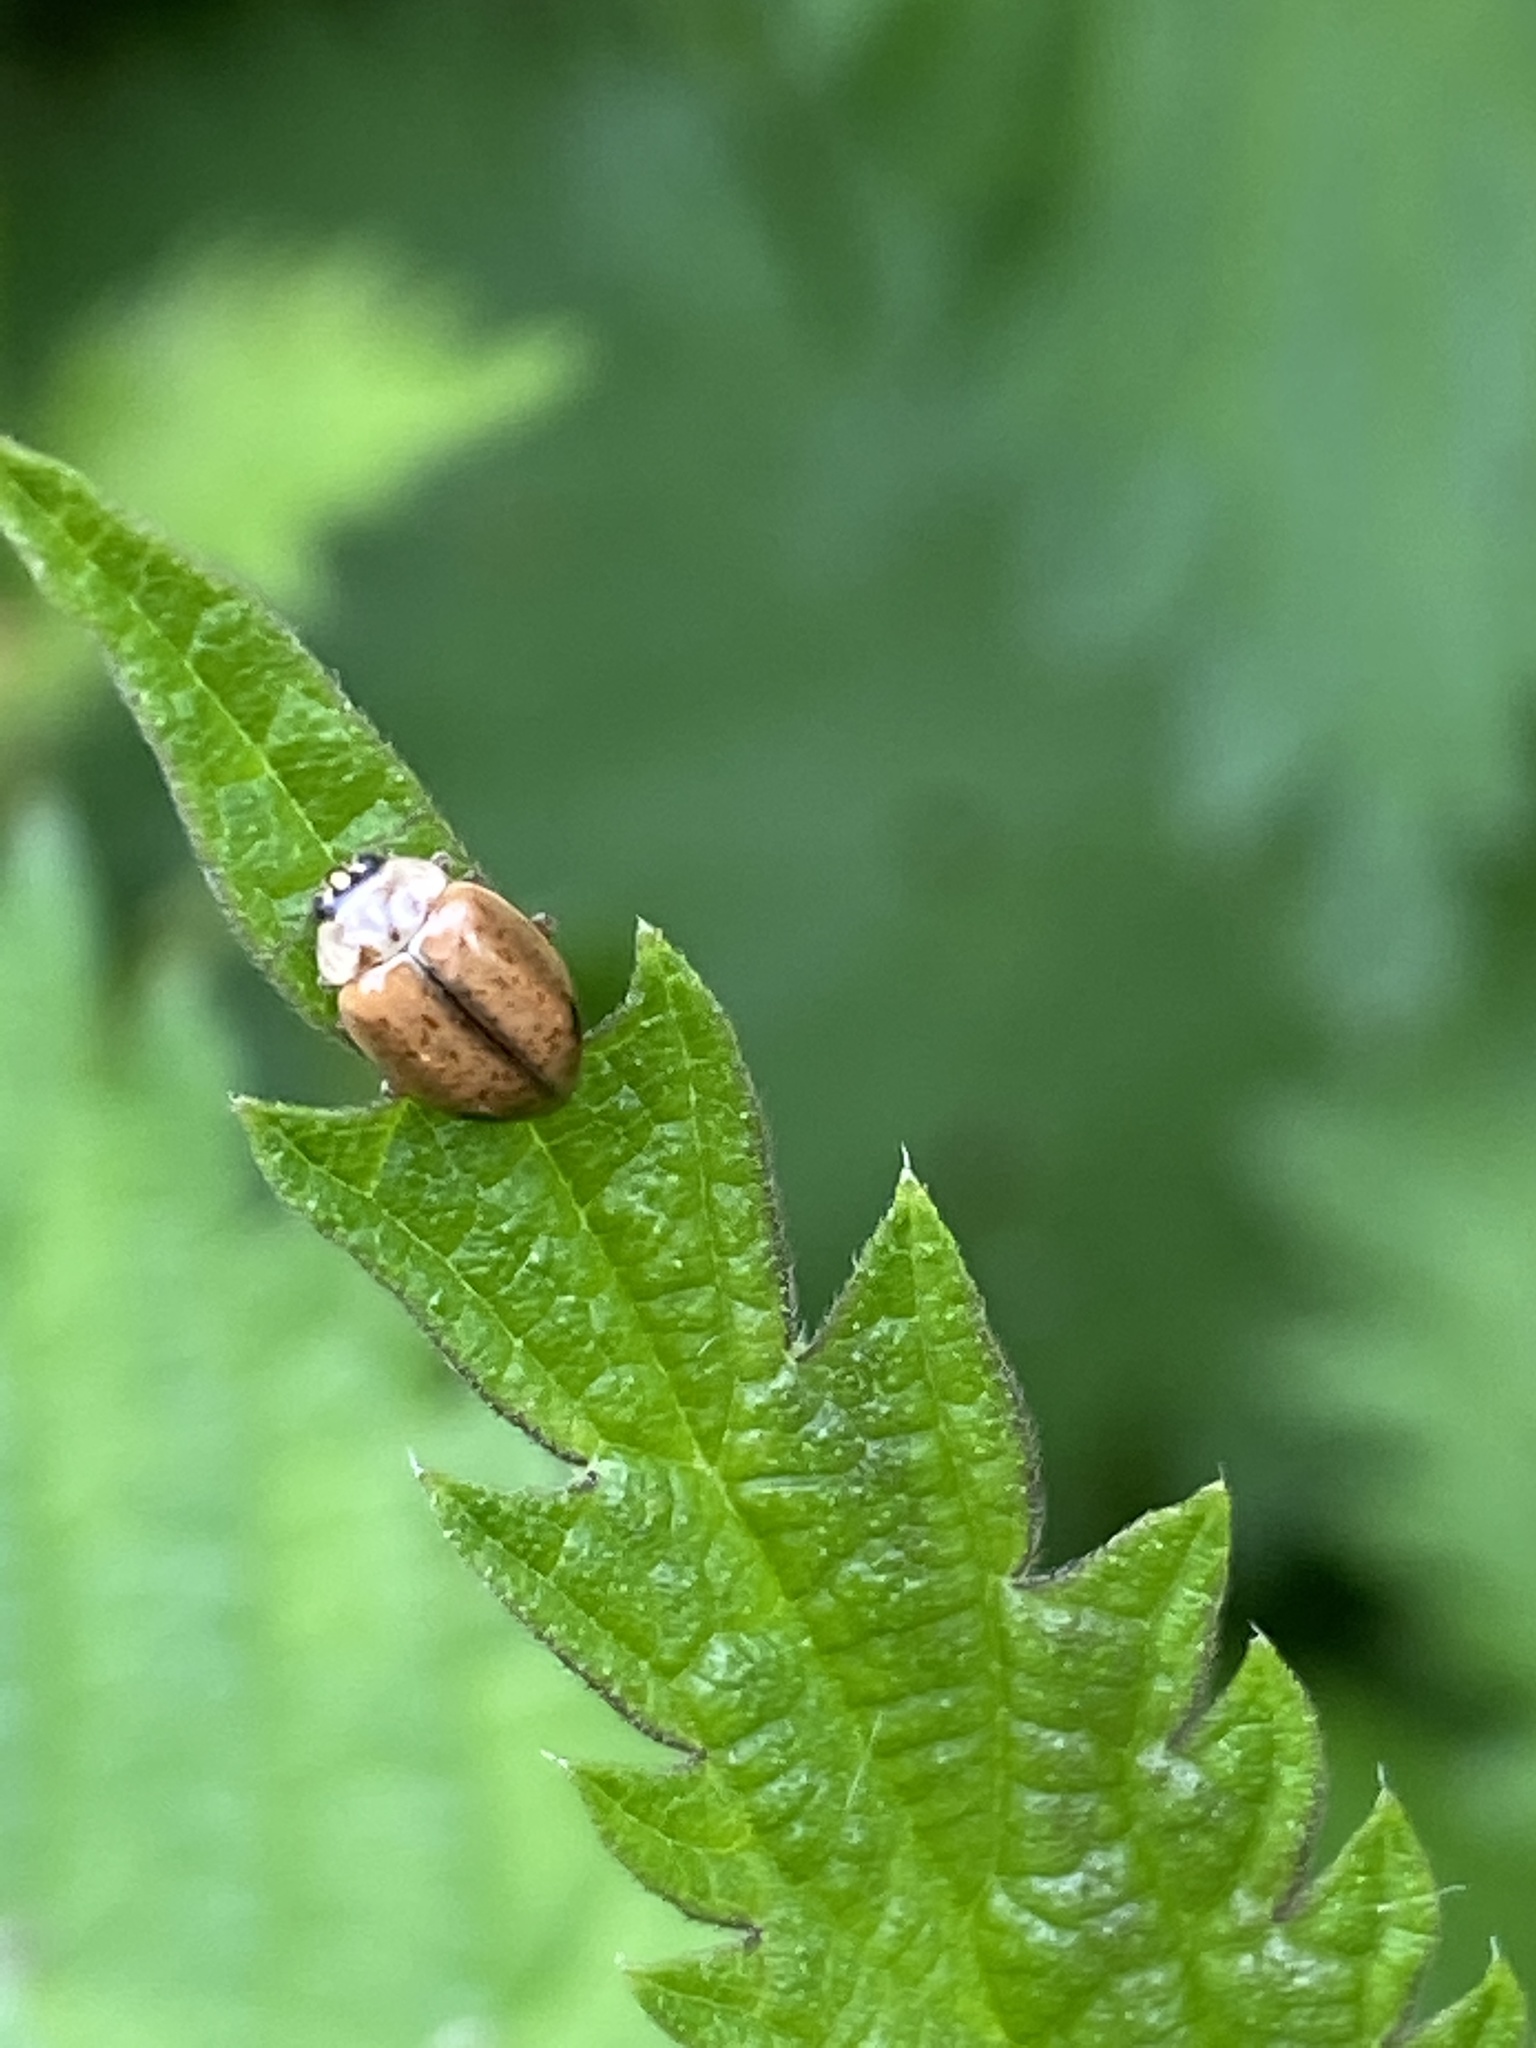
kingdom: Animalia
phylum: Arthropoda
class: Insecta
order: Coleoptera
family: Coccinellidae
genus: Aphidecta
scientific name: Aphidecta obliterata
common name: Larch ladybird
